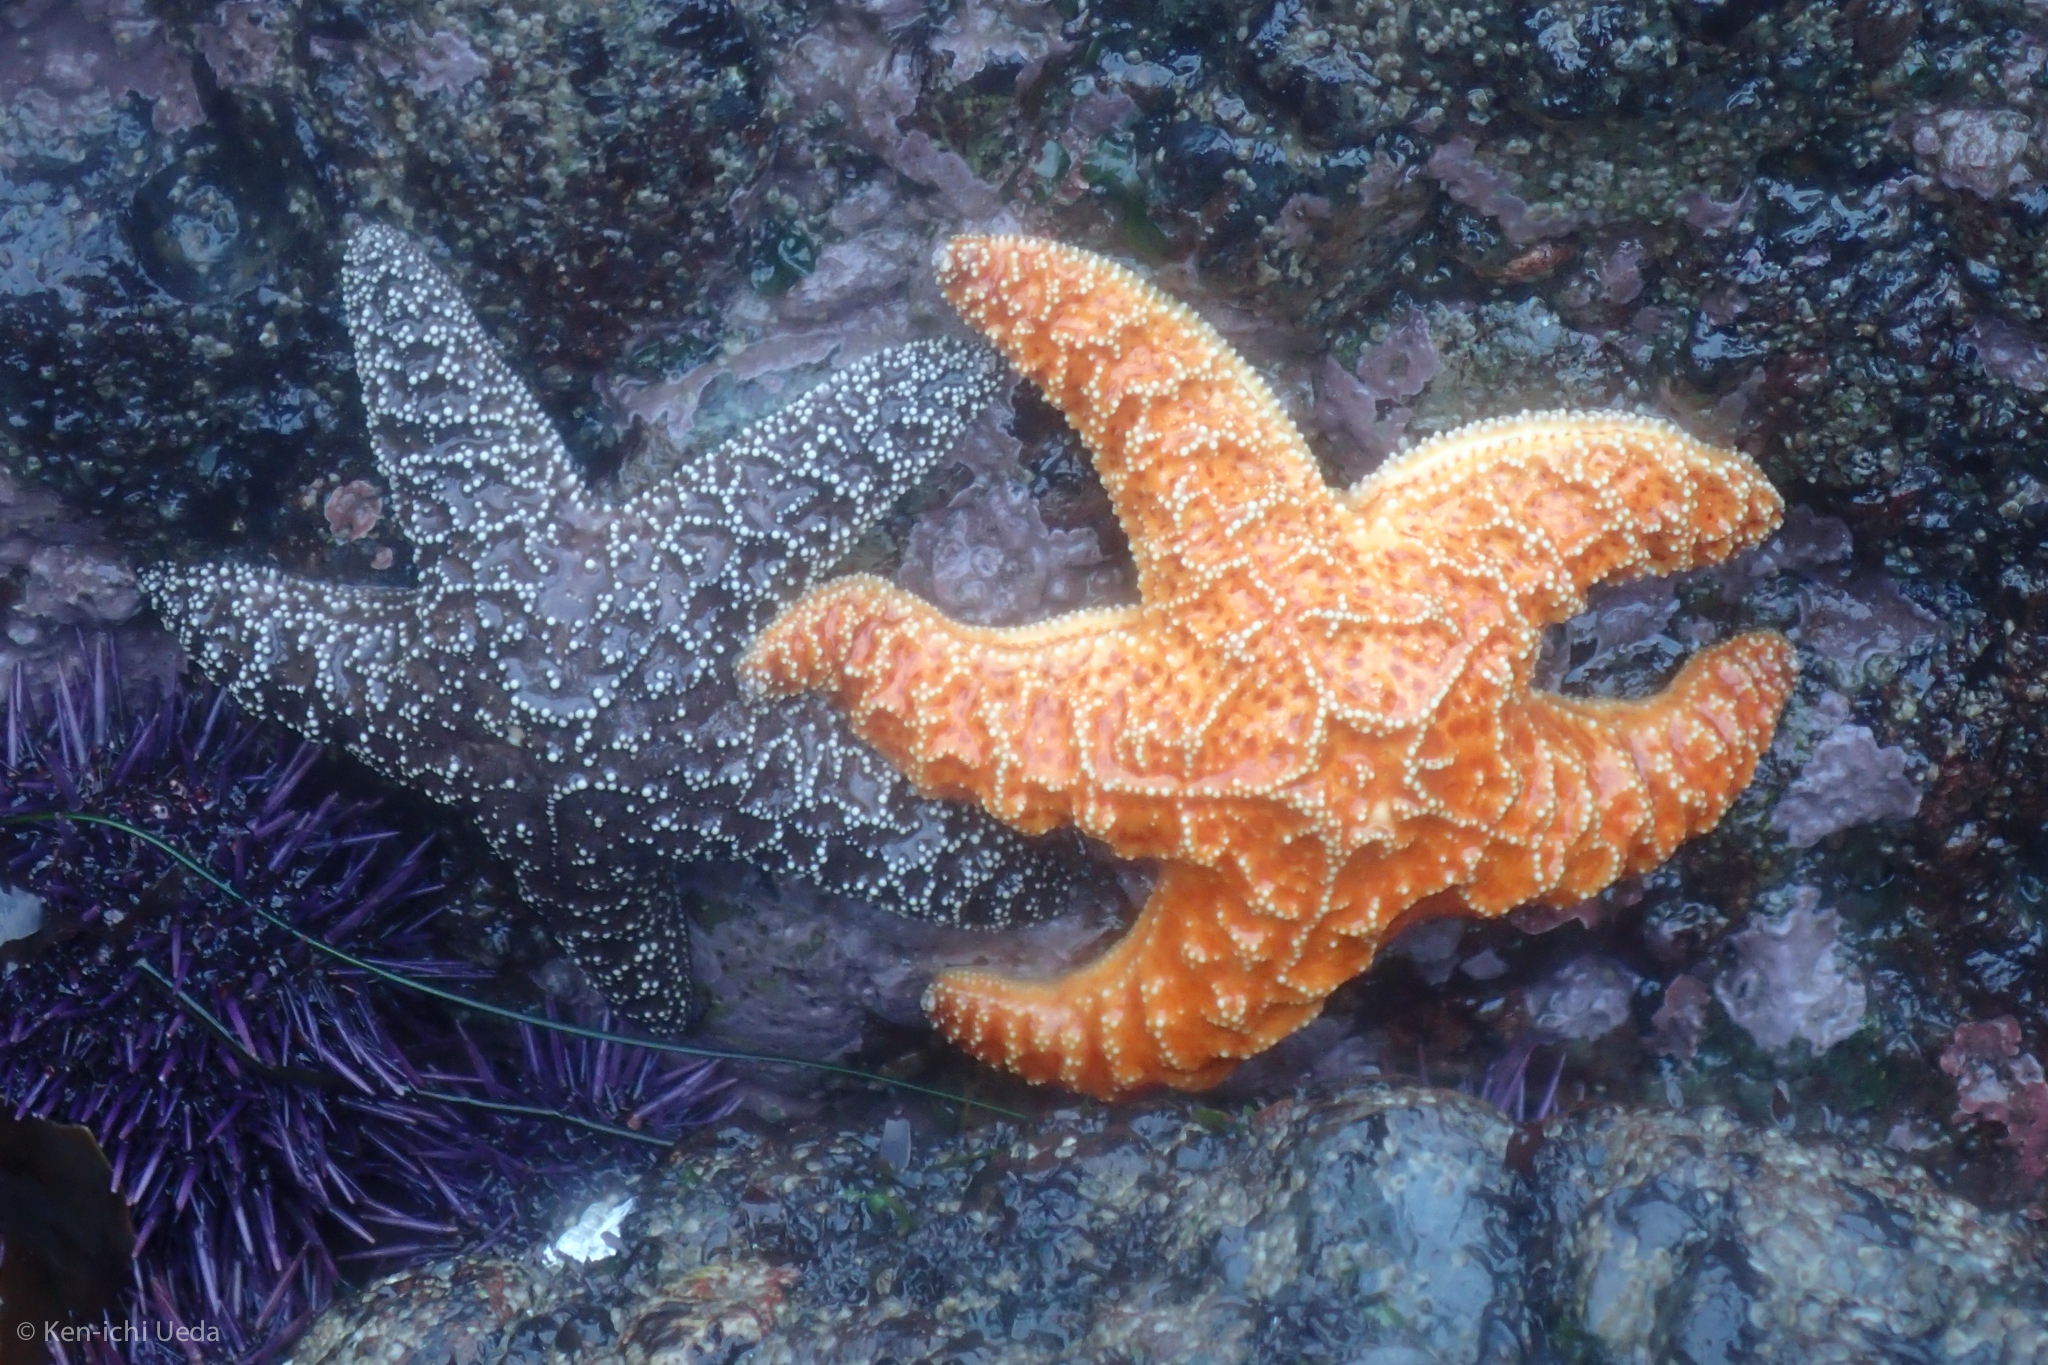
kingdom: Animalia
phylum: Echinodermata
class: Asteroidea
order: Forcipulatida
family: Asteriidae
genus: Pisaster
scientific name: Pisaster ochraceus
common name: Ochre stars
